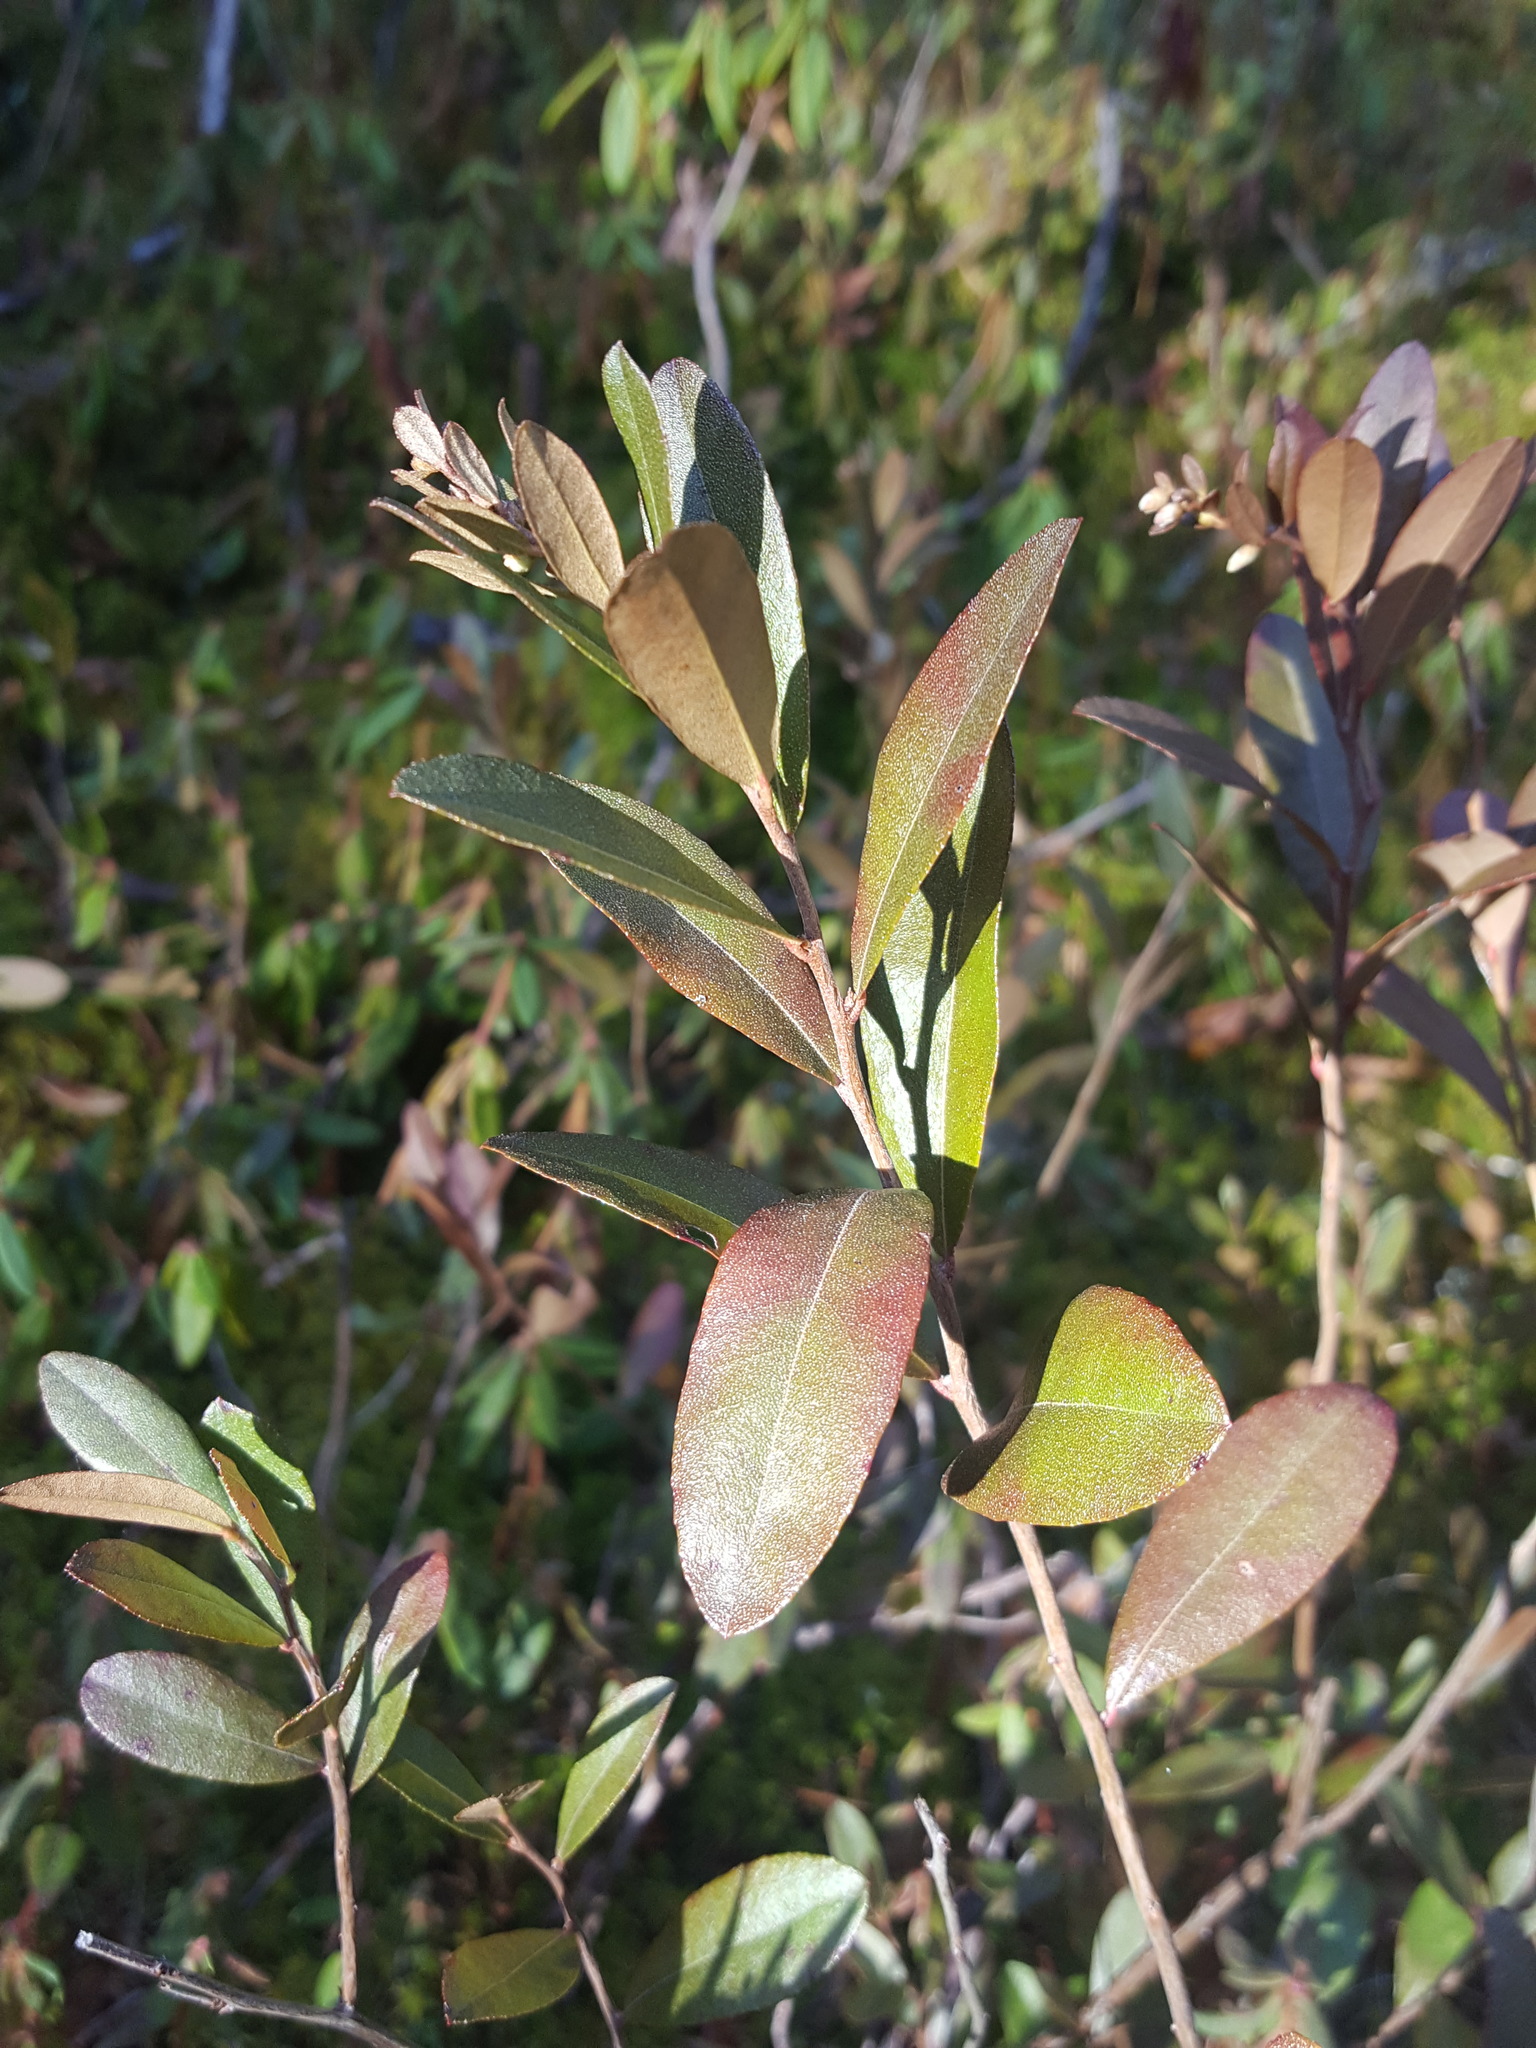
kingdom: Plantae
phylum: Tracheophyta
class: Magnoliopsida
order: Ericales
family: Ericaceae
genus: Chamaedaphne
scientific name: Chamaedaphne calyculata
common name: Leatherleaf
